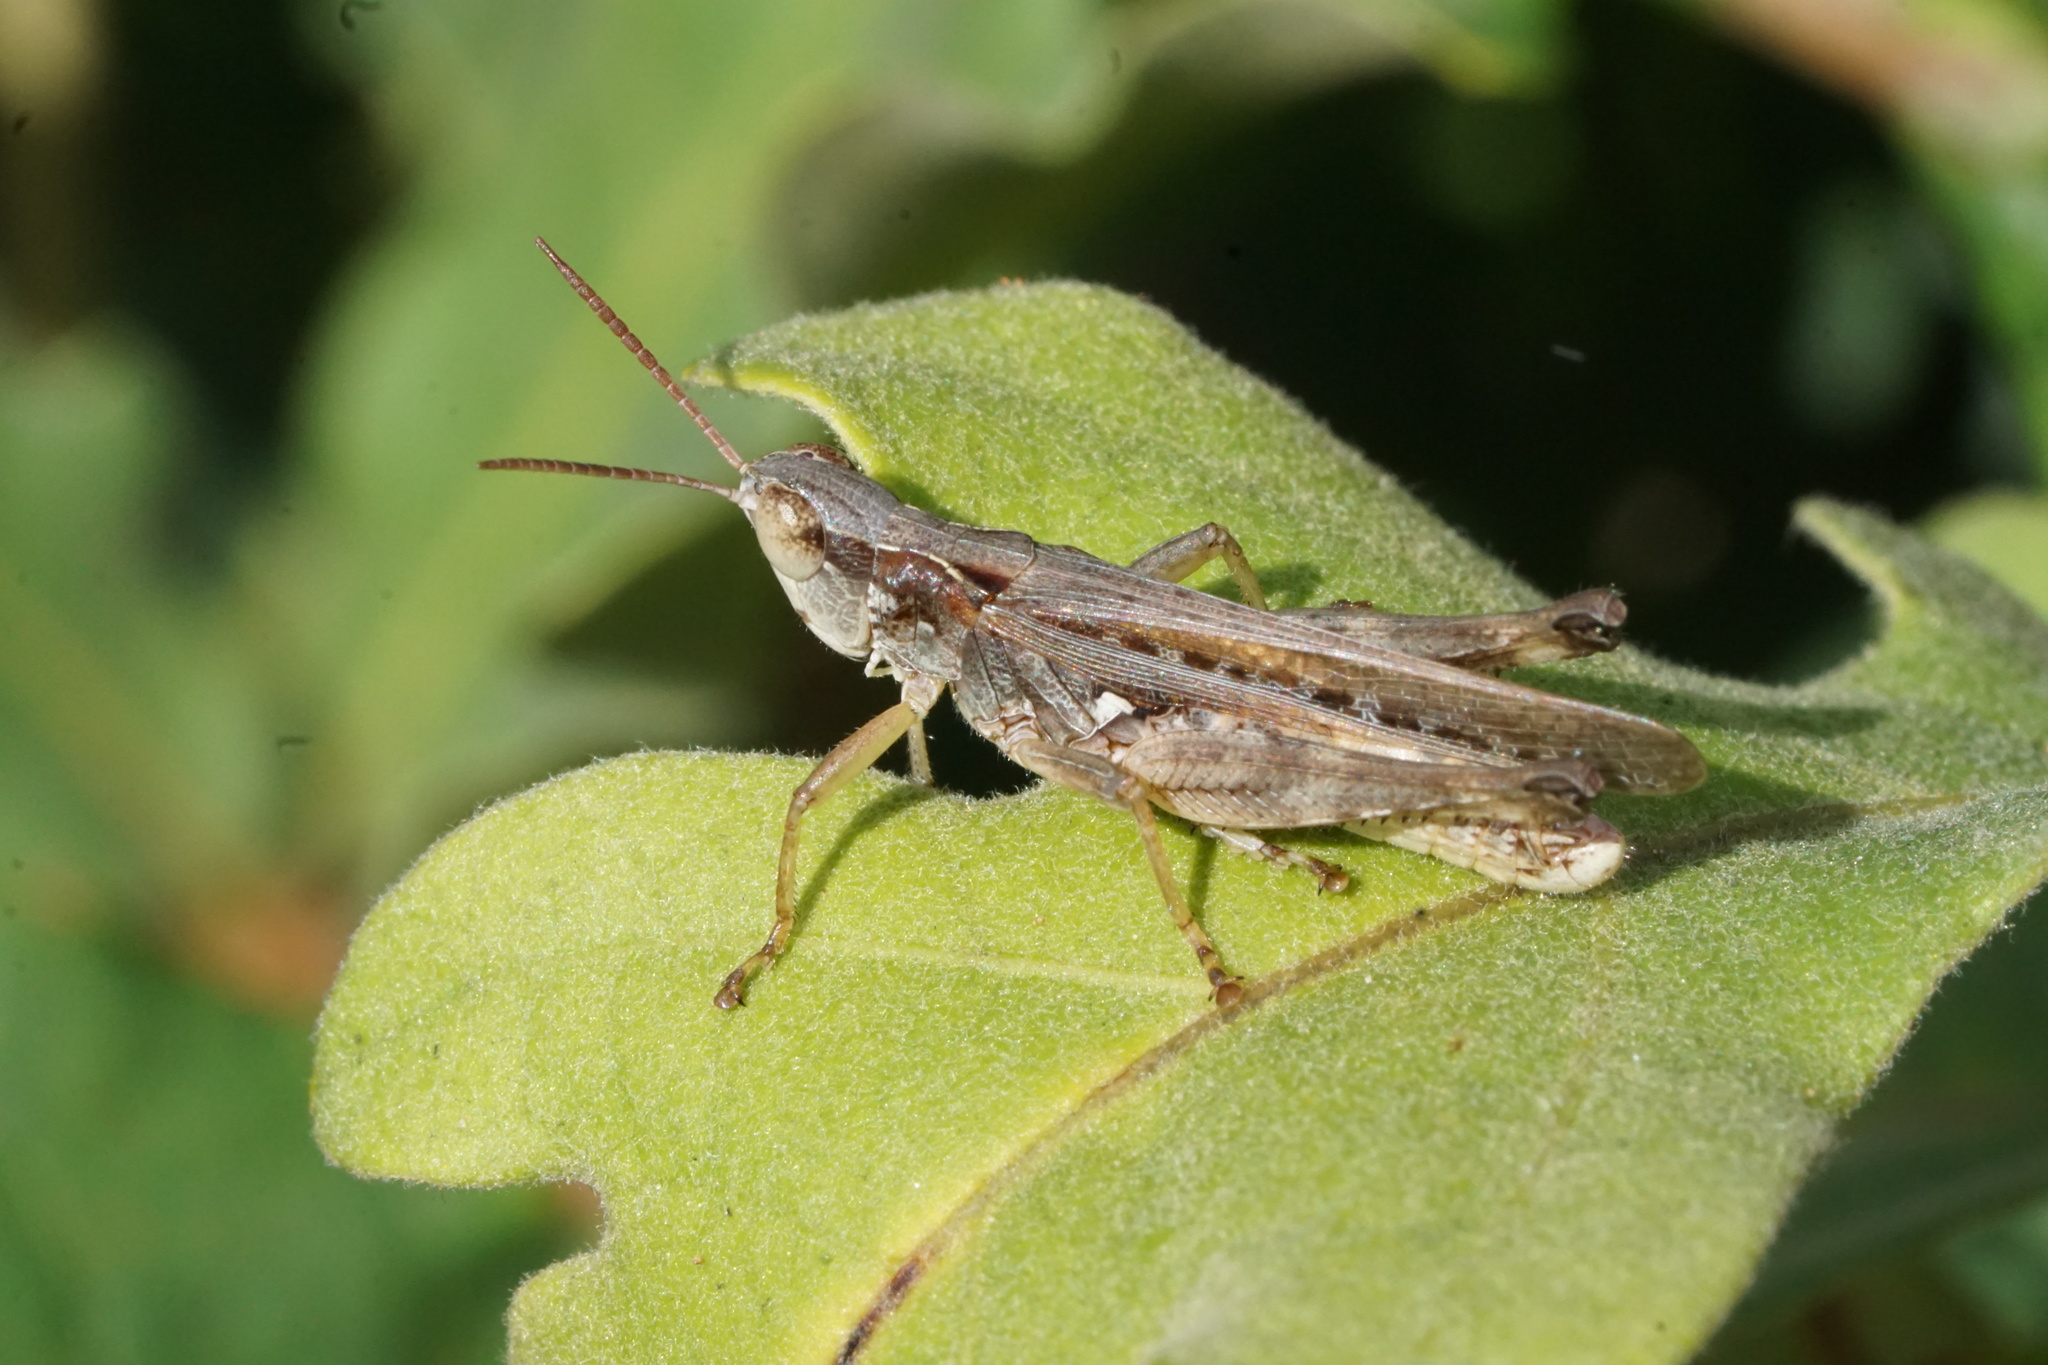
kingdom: Animalia
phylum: Arthropoda
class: Insecta
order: Orthoptera
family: Acrididae
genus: Orphulella
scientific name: Orphulella pelidna
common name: Spotted-wing grasshopper
